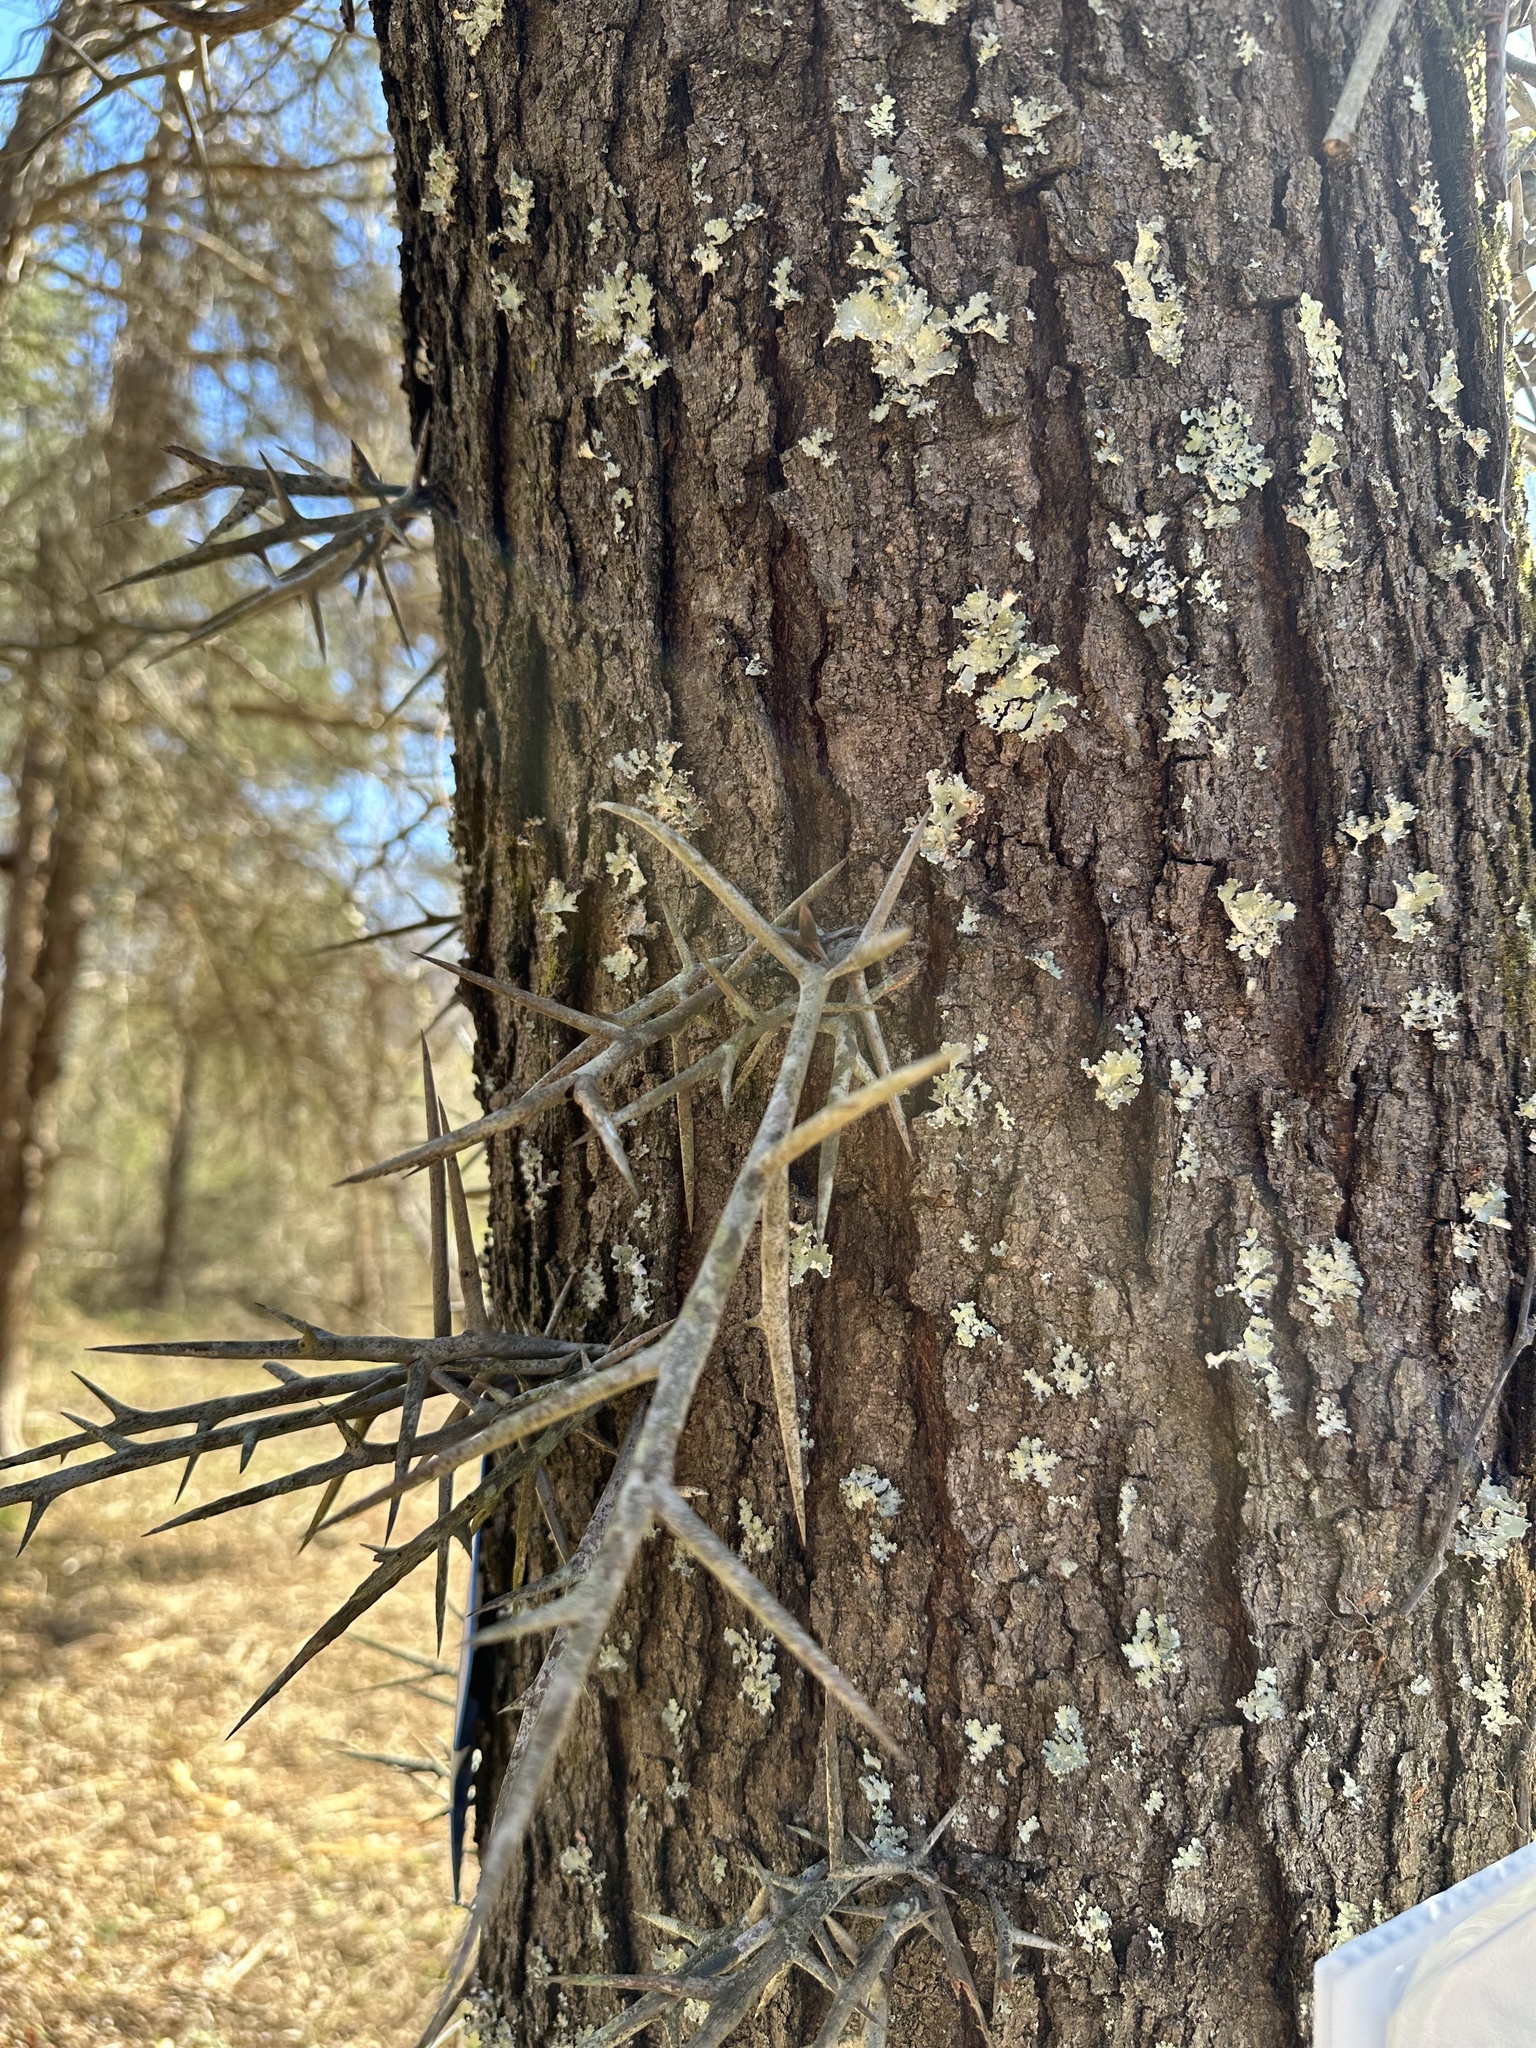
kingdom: Plantae
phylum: Tracheophyta
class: Magnoliopsida
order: Fabales
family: Fabaceae
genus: Gleditsia
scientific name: Gleditsia triacanthos
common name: Common honeylocust
